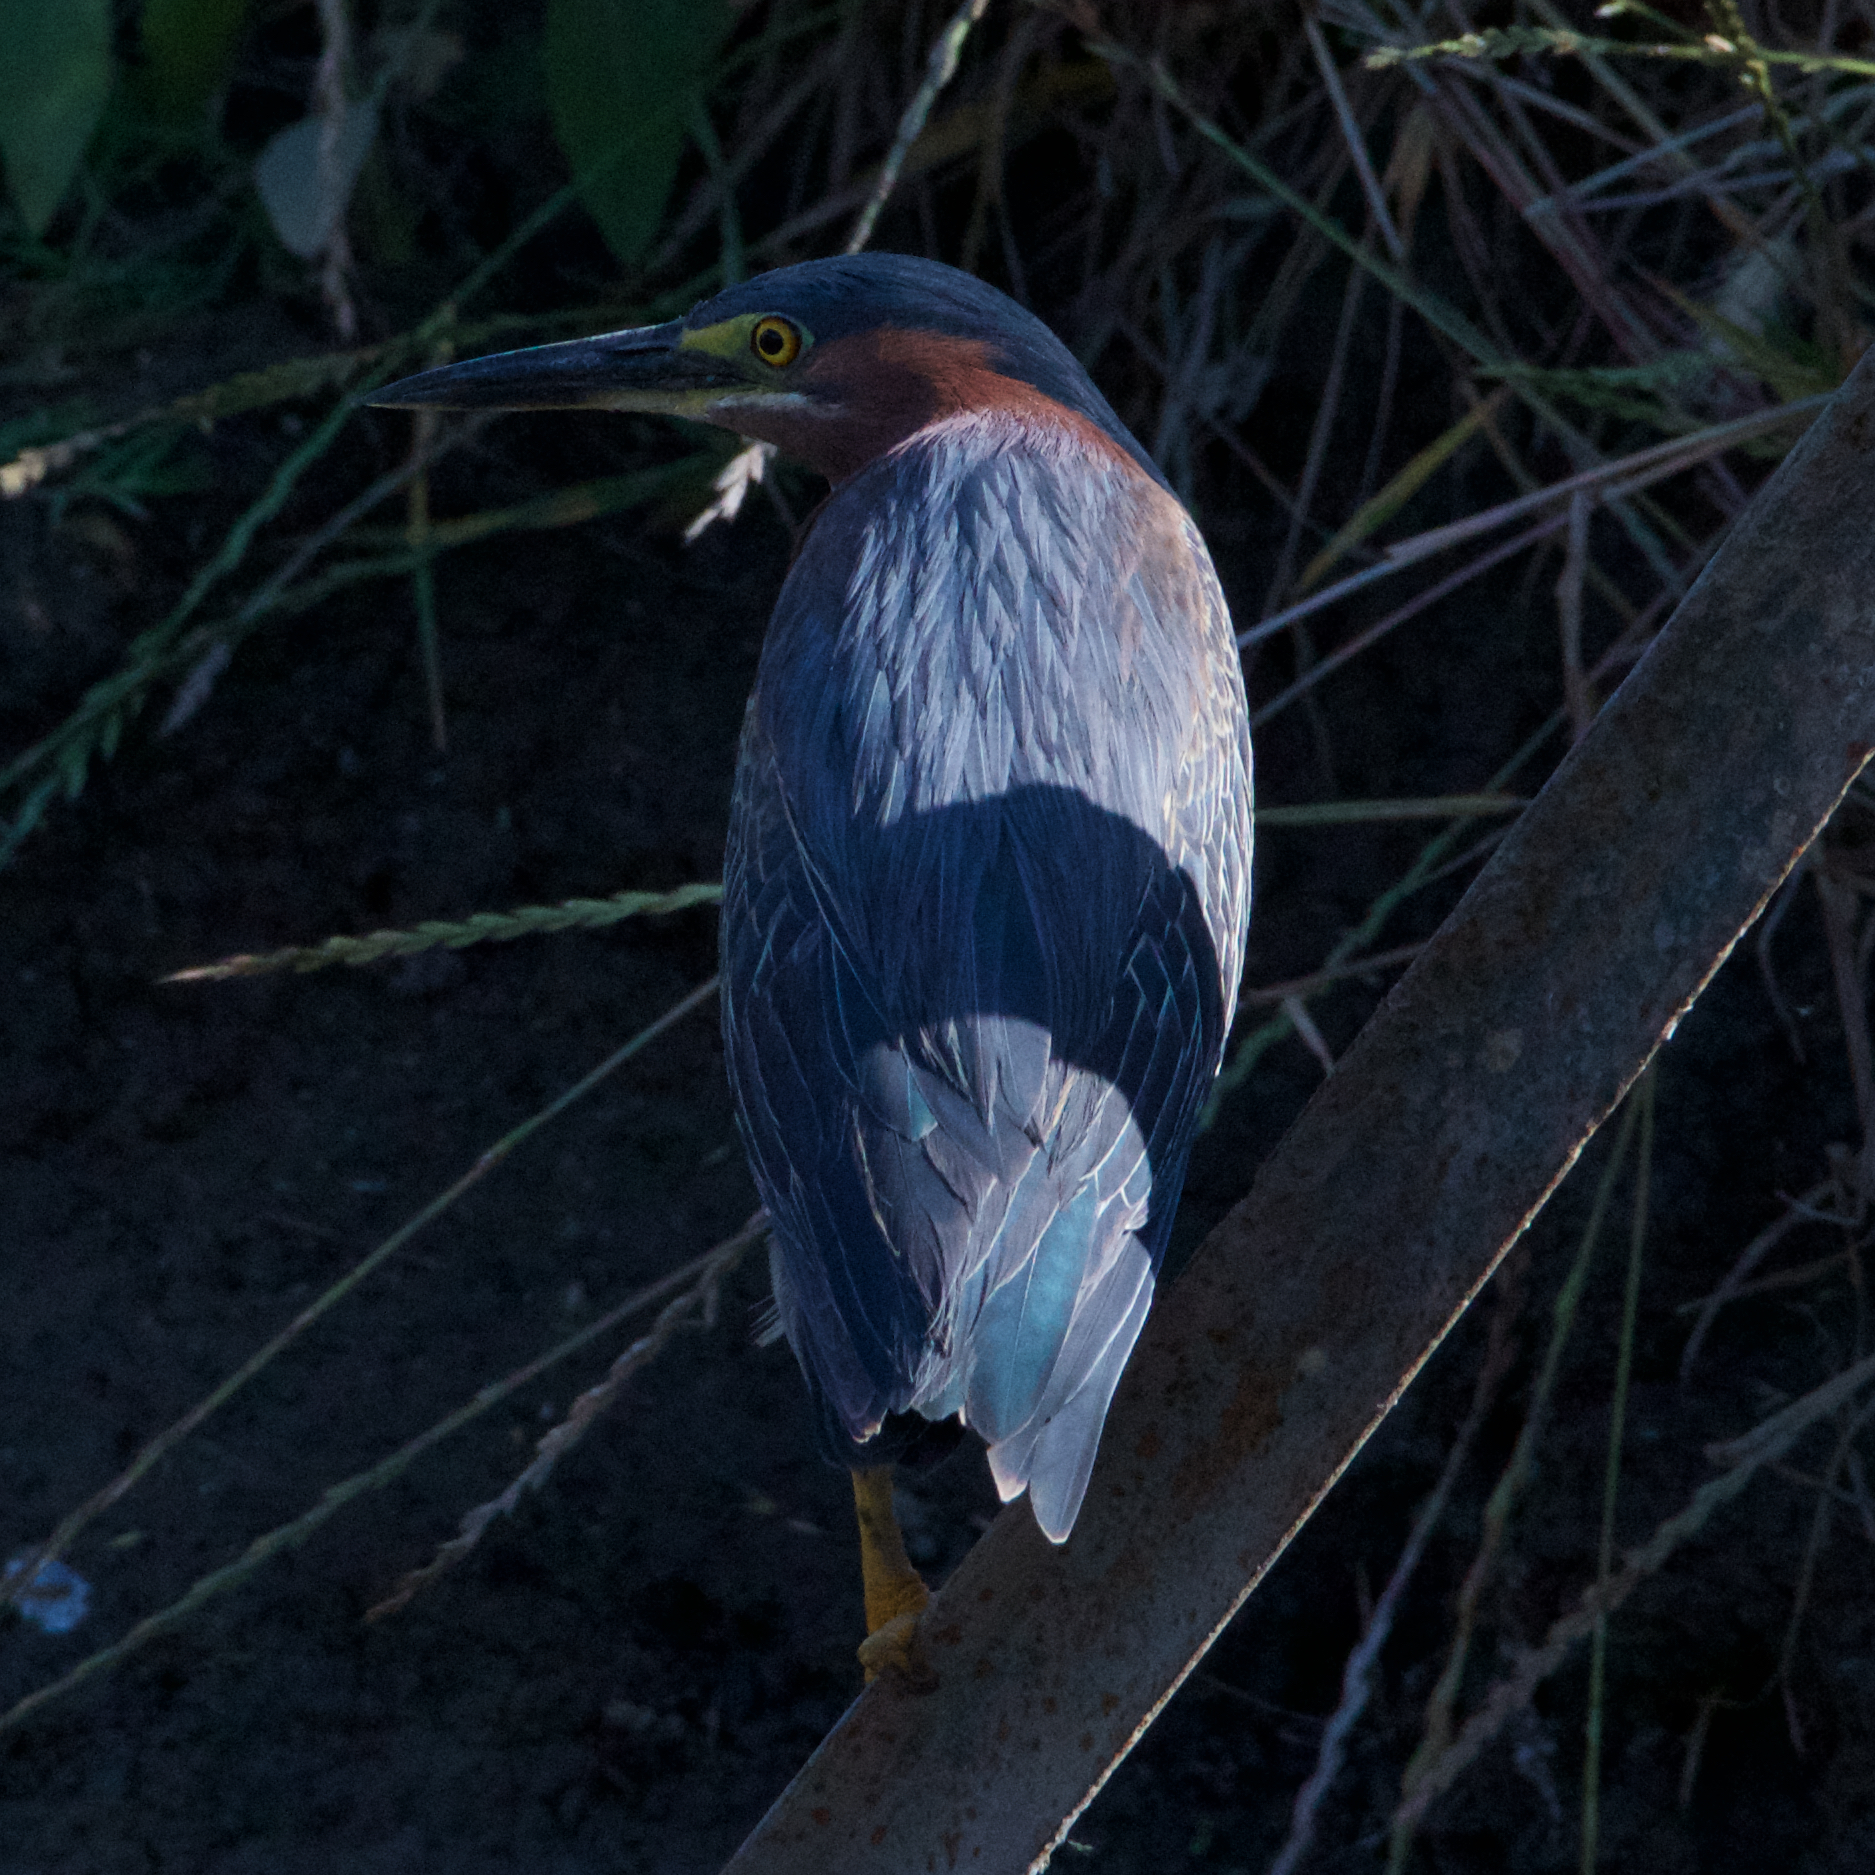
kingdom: Animalia
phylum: Chordata
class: Aves
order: Pelecaniformes
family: Ardeidae
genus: Butorides
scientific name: Butorides virescens
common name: Green heron
